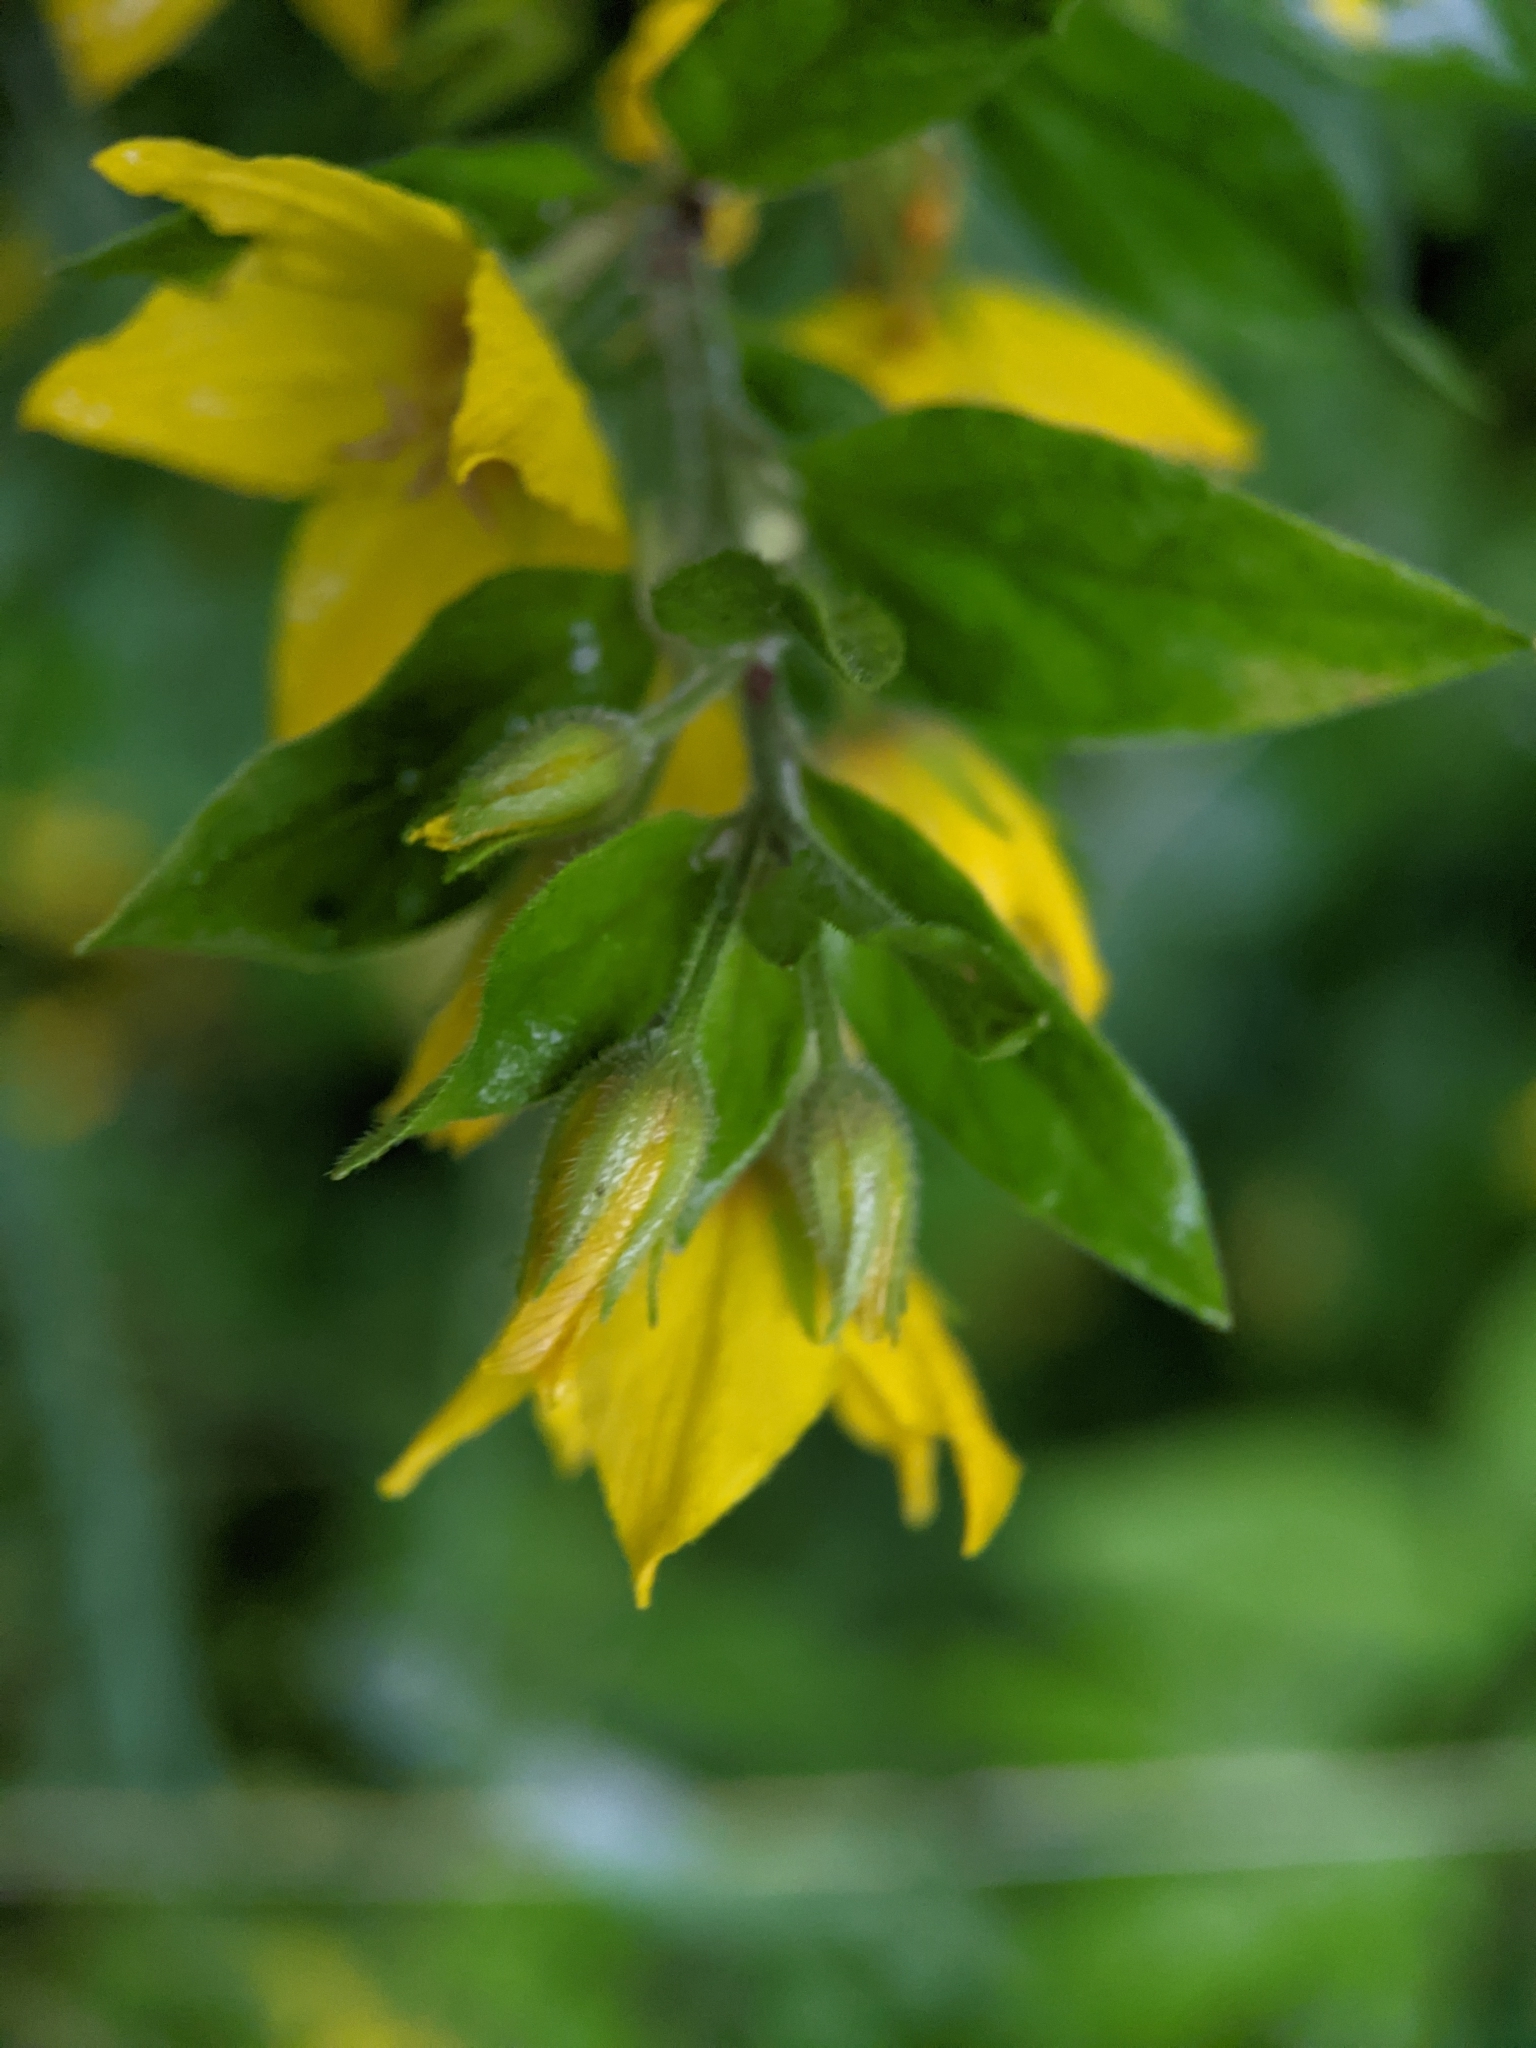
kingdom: Plantae
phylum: Tracheophyta
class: Magnoliopsida
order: Ericales
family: Primulaceae
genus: Lysimachia
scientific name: Lysimachia punctata
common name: Dotted loosestrife
